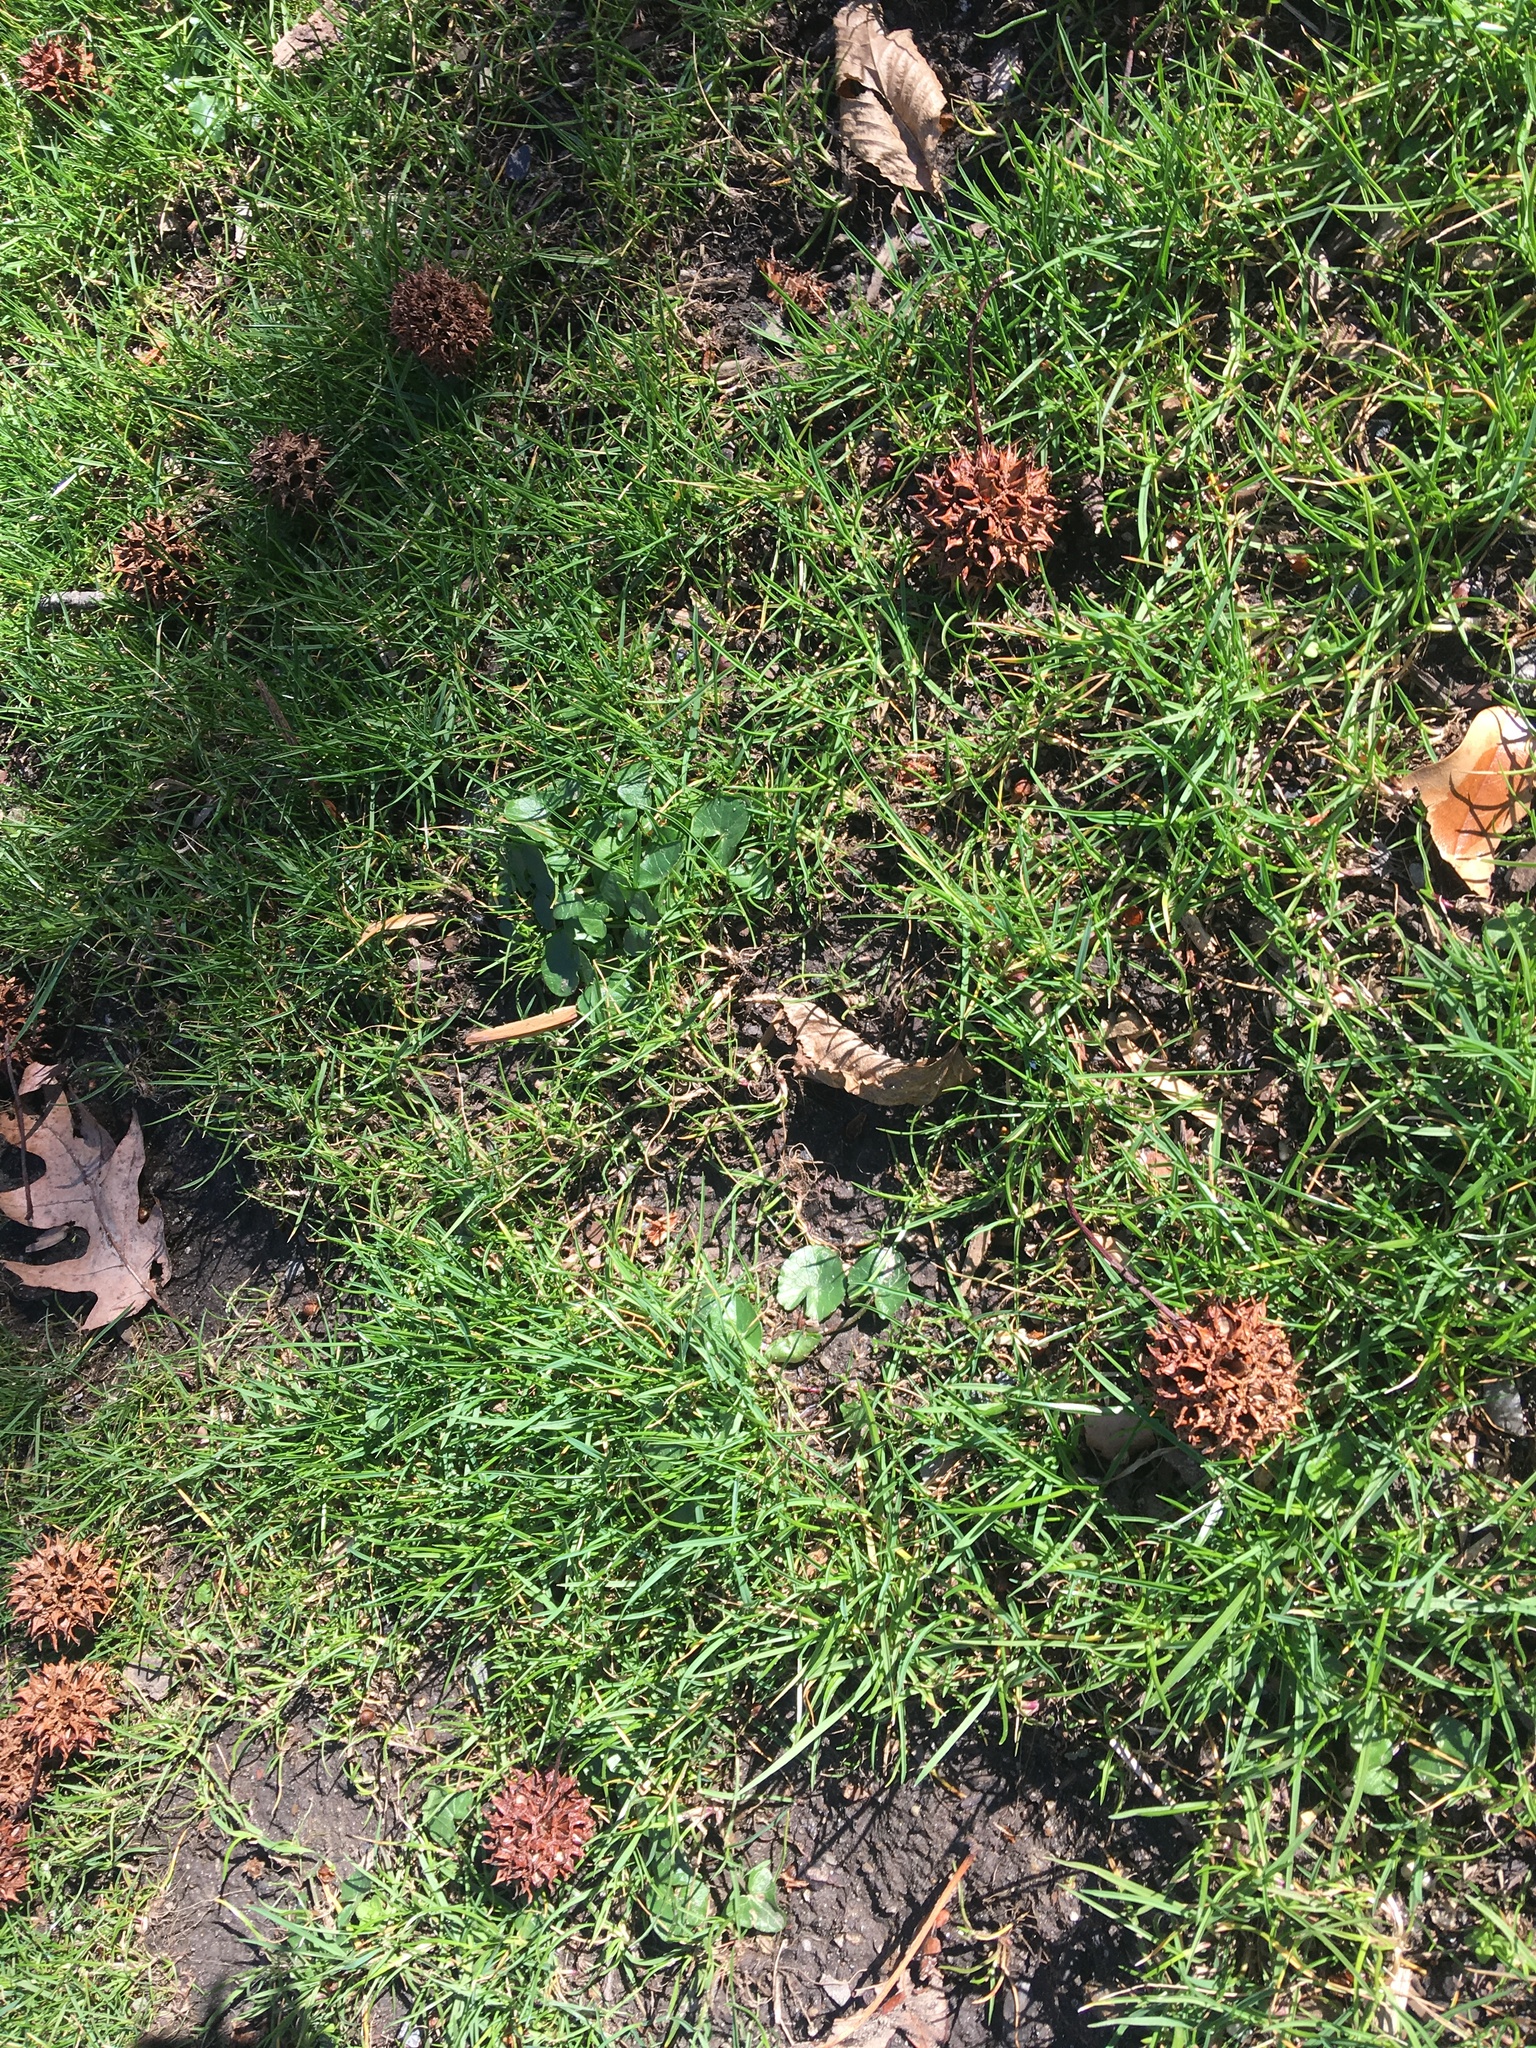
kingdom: Plantae
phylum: Tracheophyta
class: Magnoliopsida
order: Ranunculales
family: Ranunculaceae
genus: Ficaria
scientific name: Ficaria verna
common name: Lesser celandine
